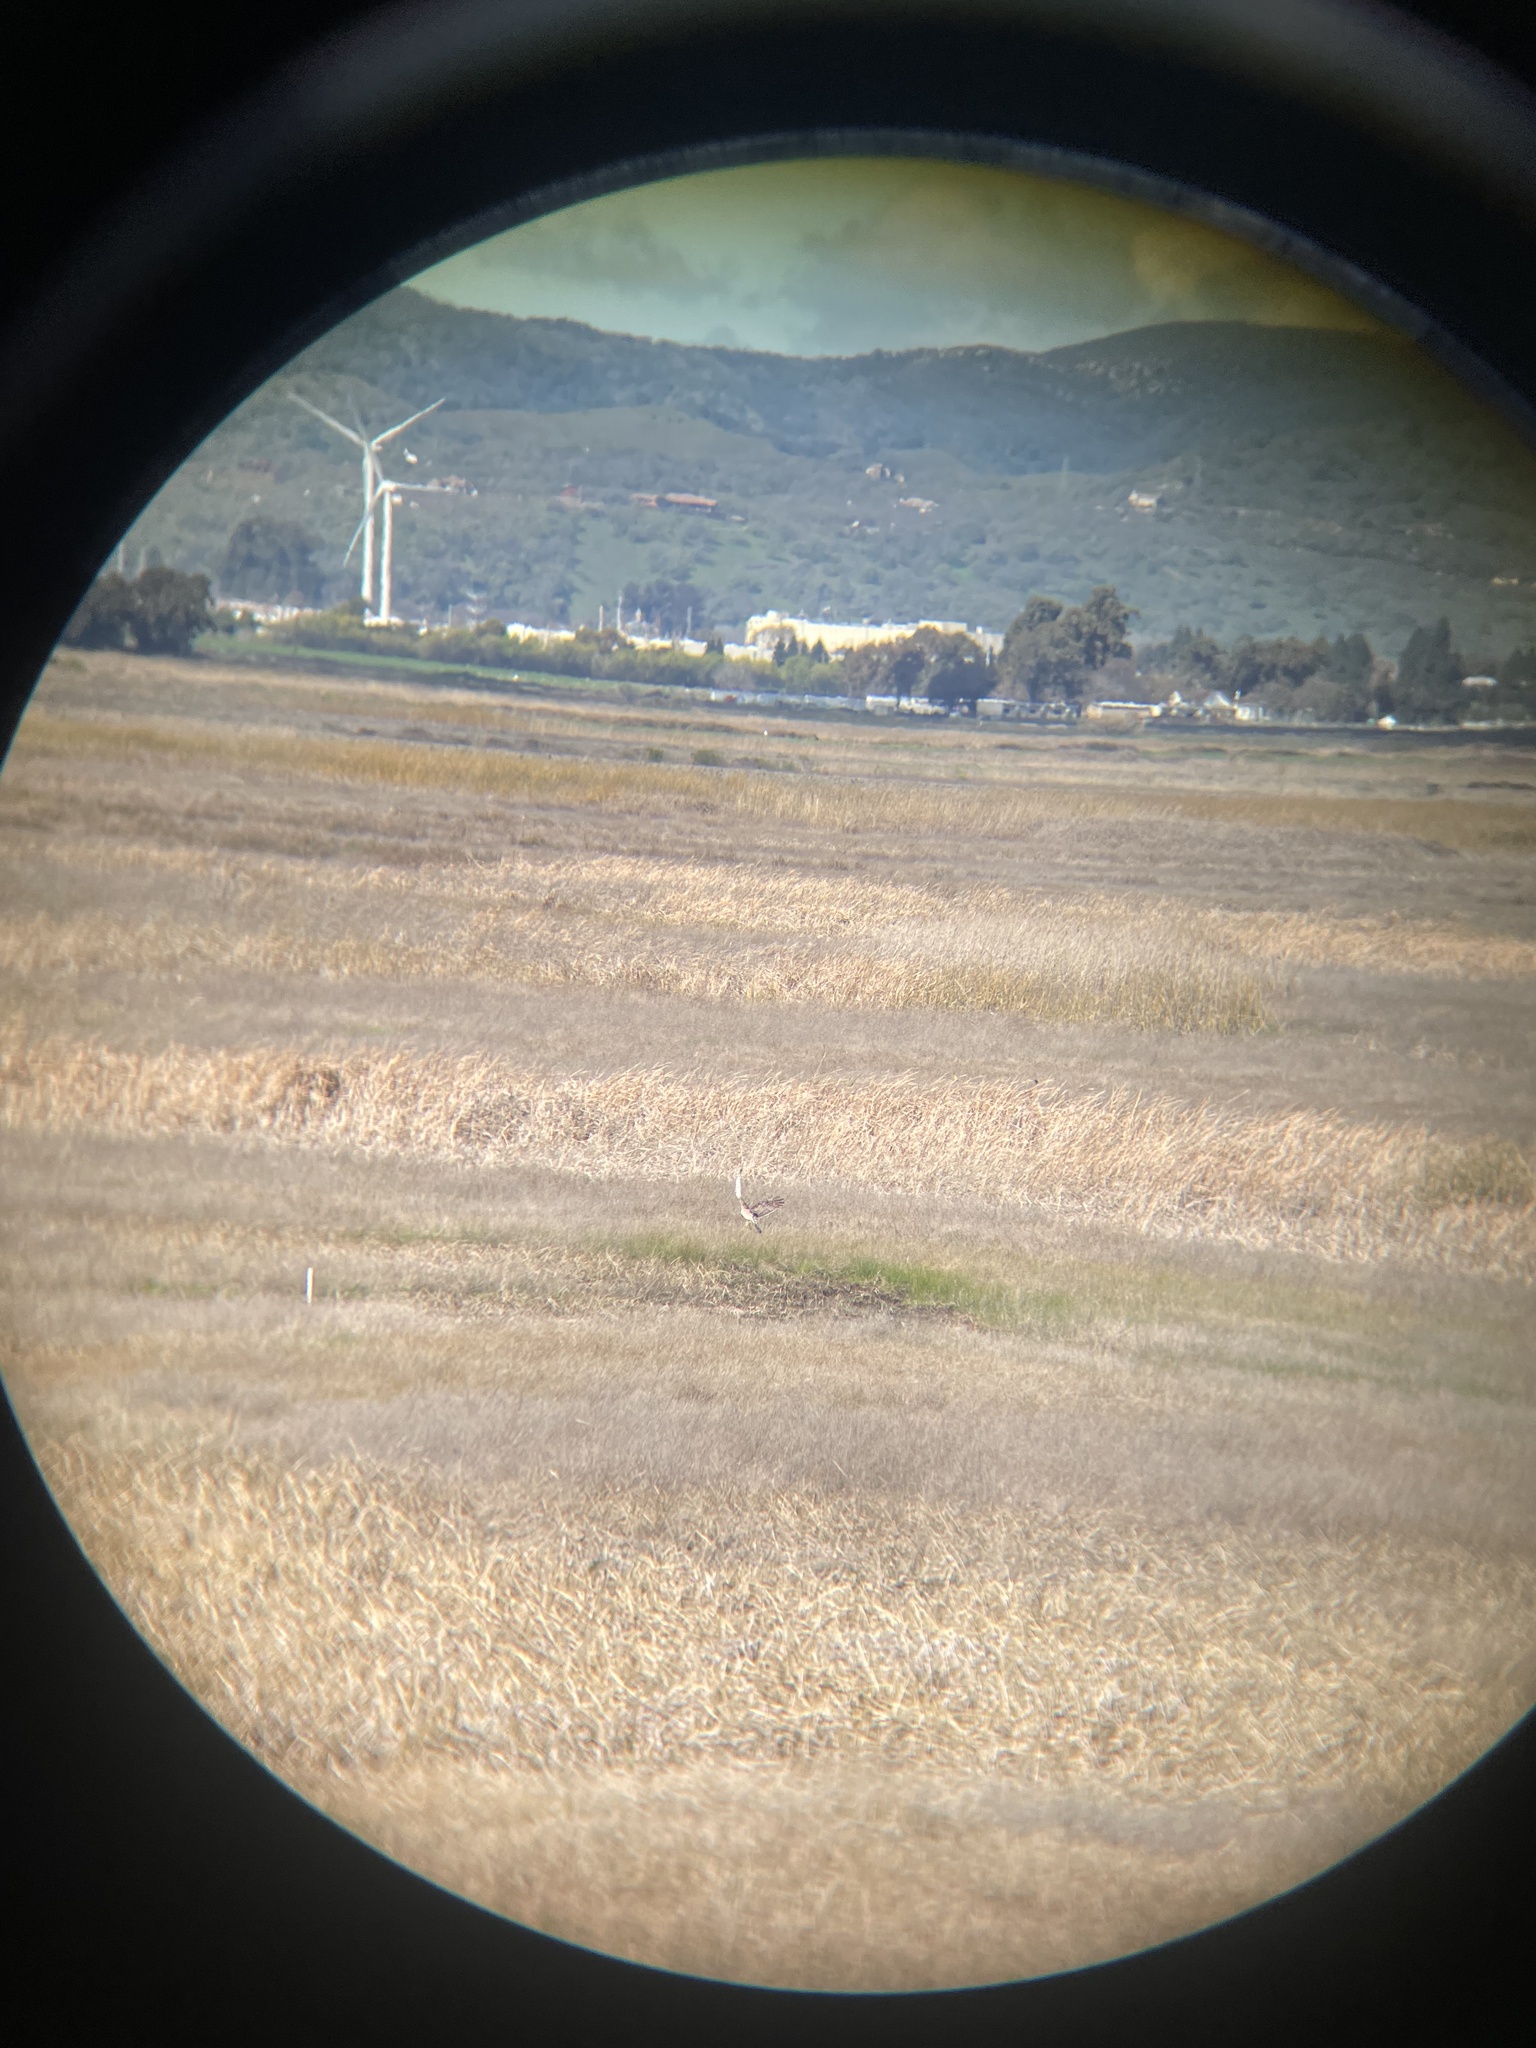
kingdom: Animalia
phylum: Chordata
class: Aves
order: Accipitriformes
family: Accipitridae
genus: Circus
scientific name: Circus cyaneus
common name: Hen harrier
